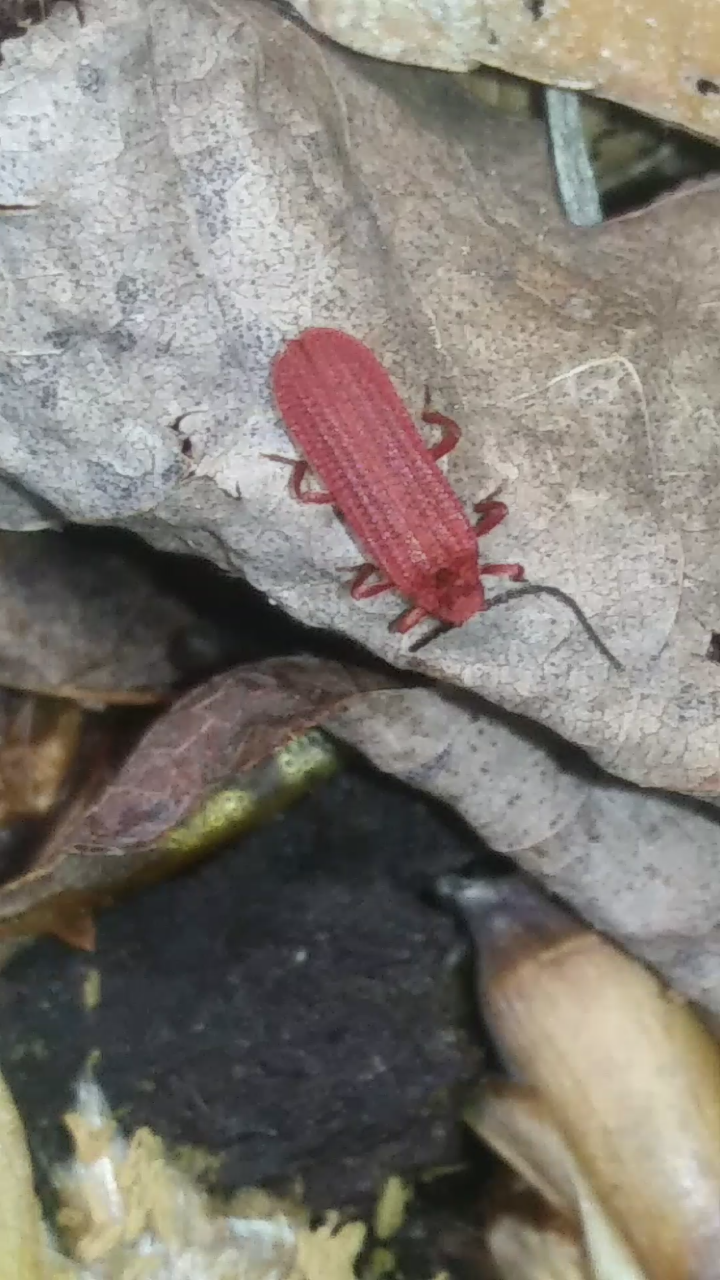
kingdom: Animalia
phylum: Arthropoda
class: Insecta
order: Coleoptera
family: Lycidae
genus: Punicealis
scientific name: Punicealis
